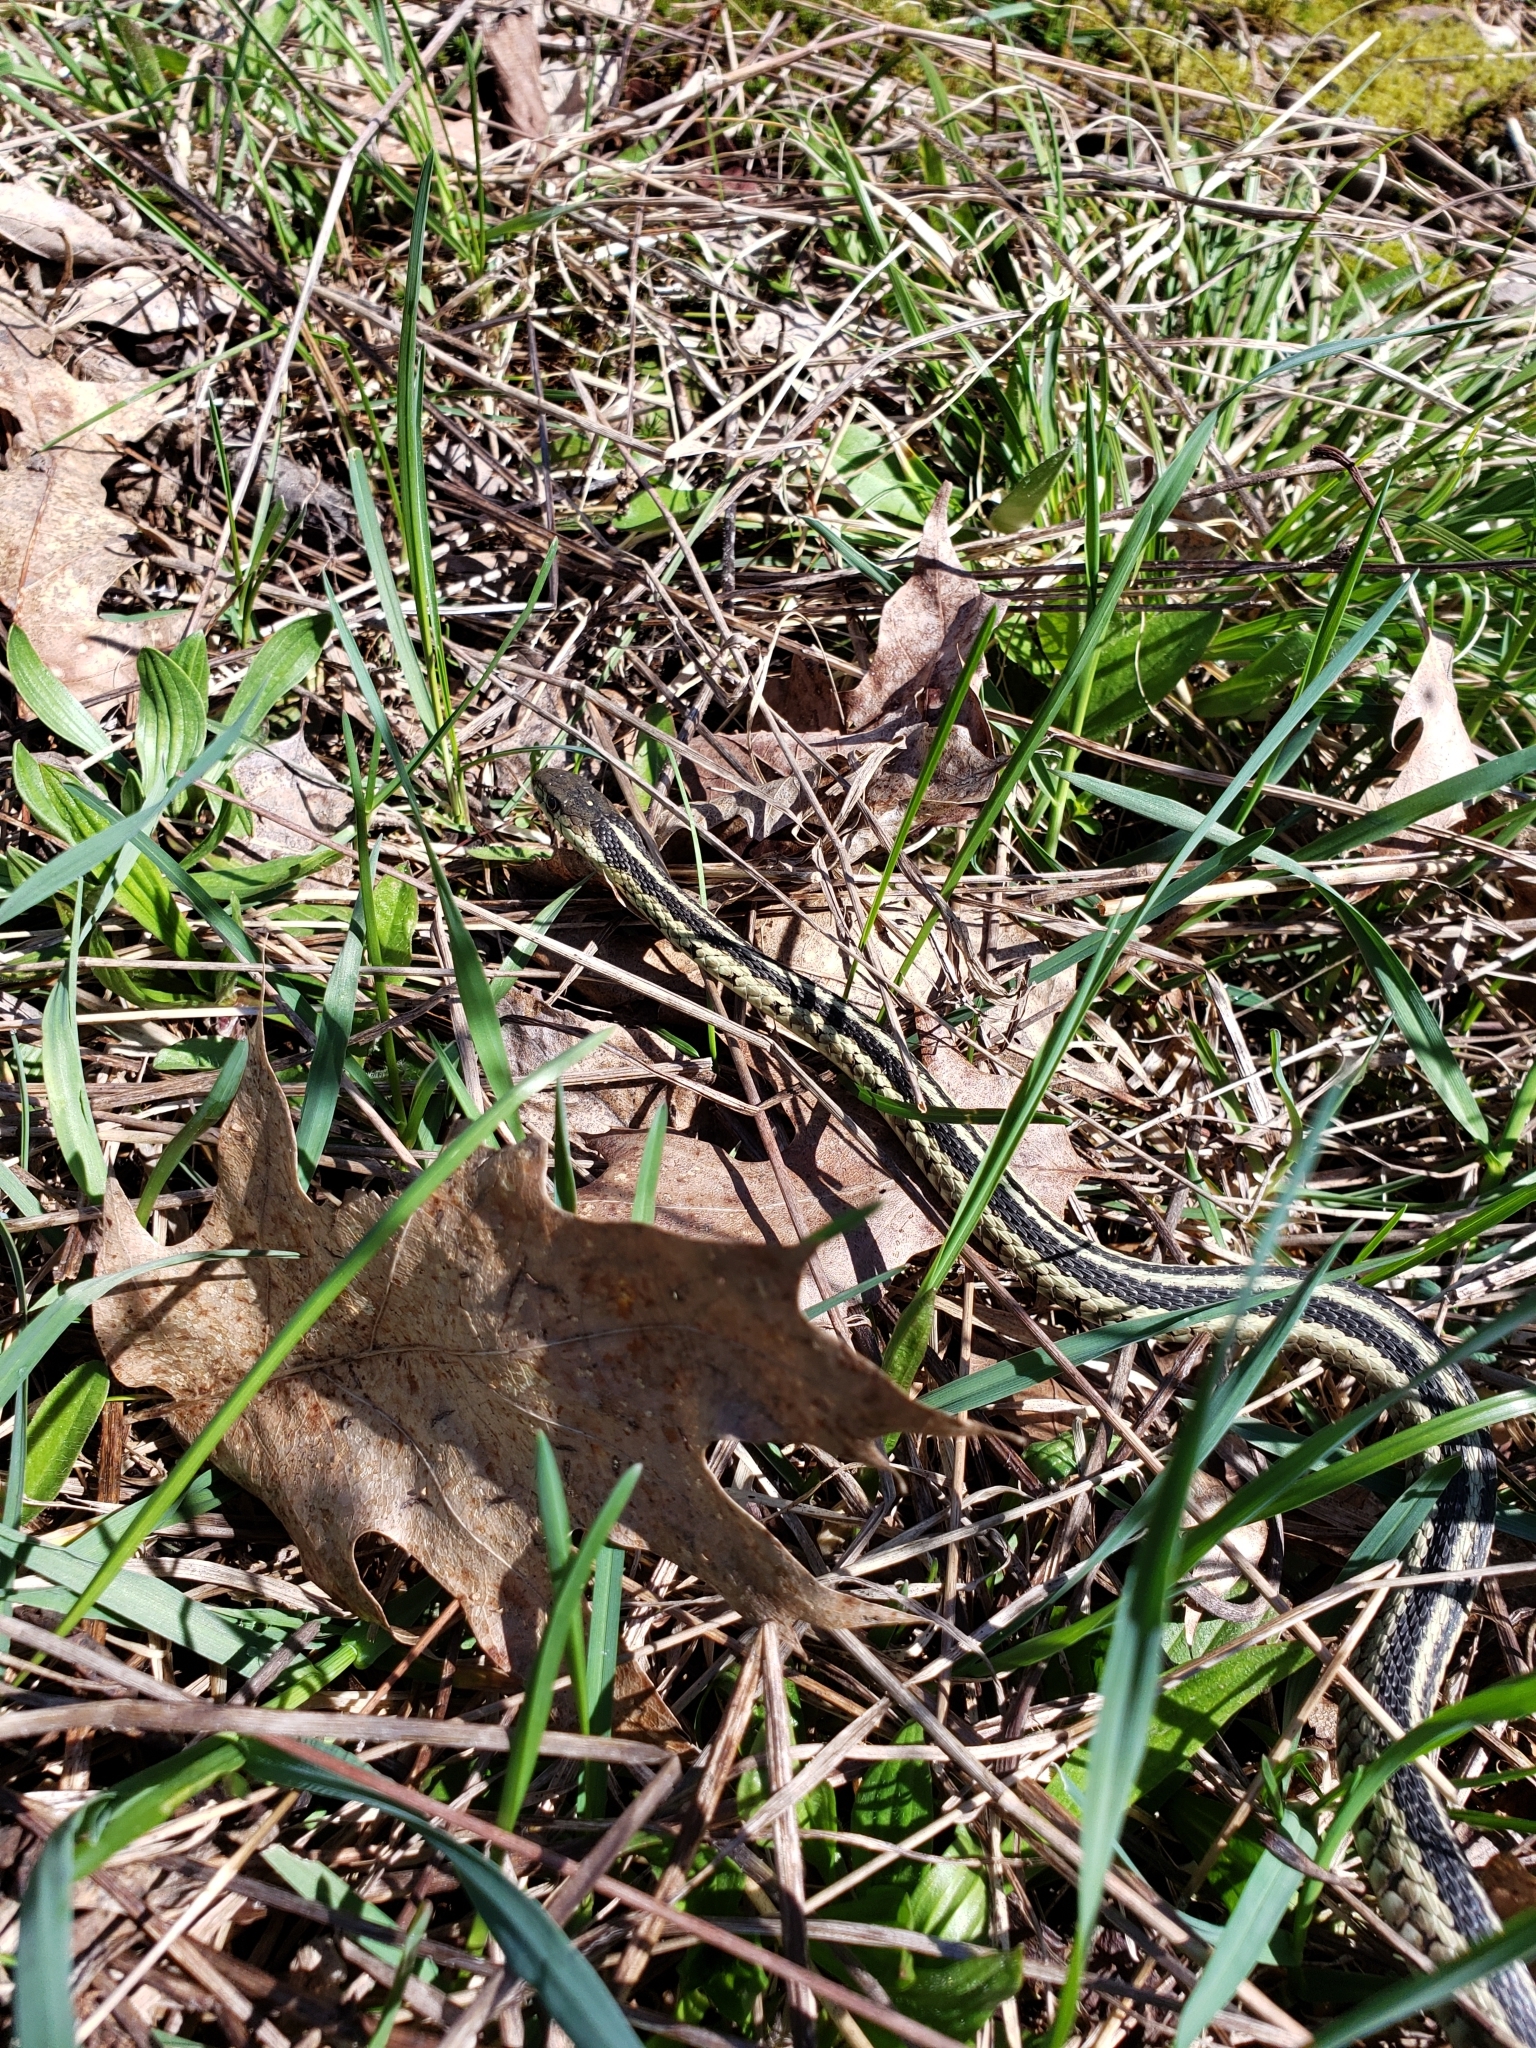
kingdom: Animalia
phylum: Chordata
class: Squamata
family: Colubridae
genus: Thamnophis
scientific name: Thamnophis sirtalis
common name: Common garter snake
